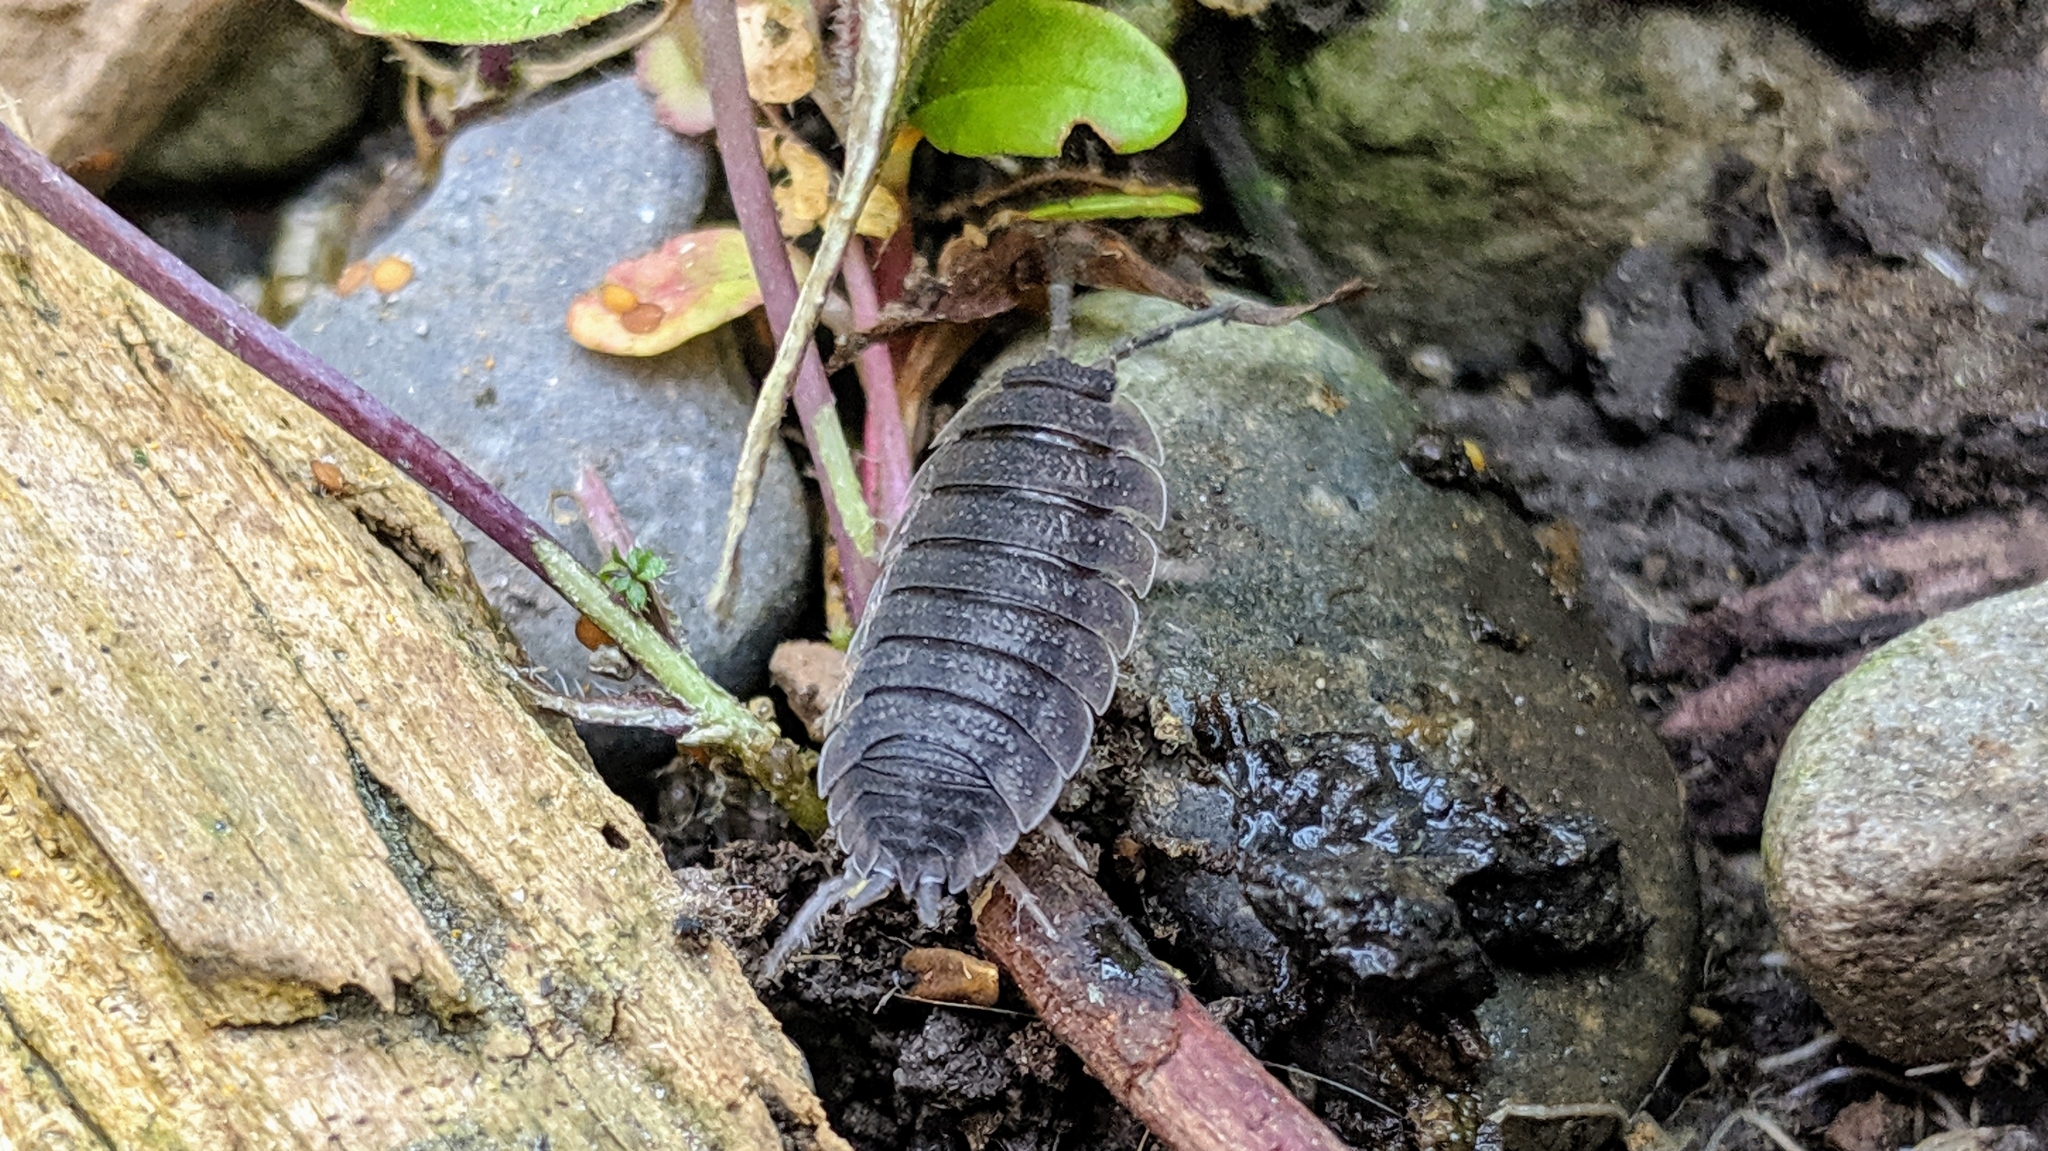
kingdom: Animalia
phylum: Arthropoda
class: Malacostraca
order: Isopoda
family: Porcellionidae
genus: Porcellio
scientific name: Porcellio scaber
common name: Common rough woodlouse
